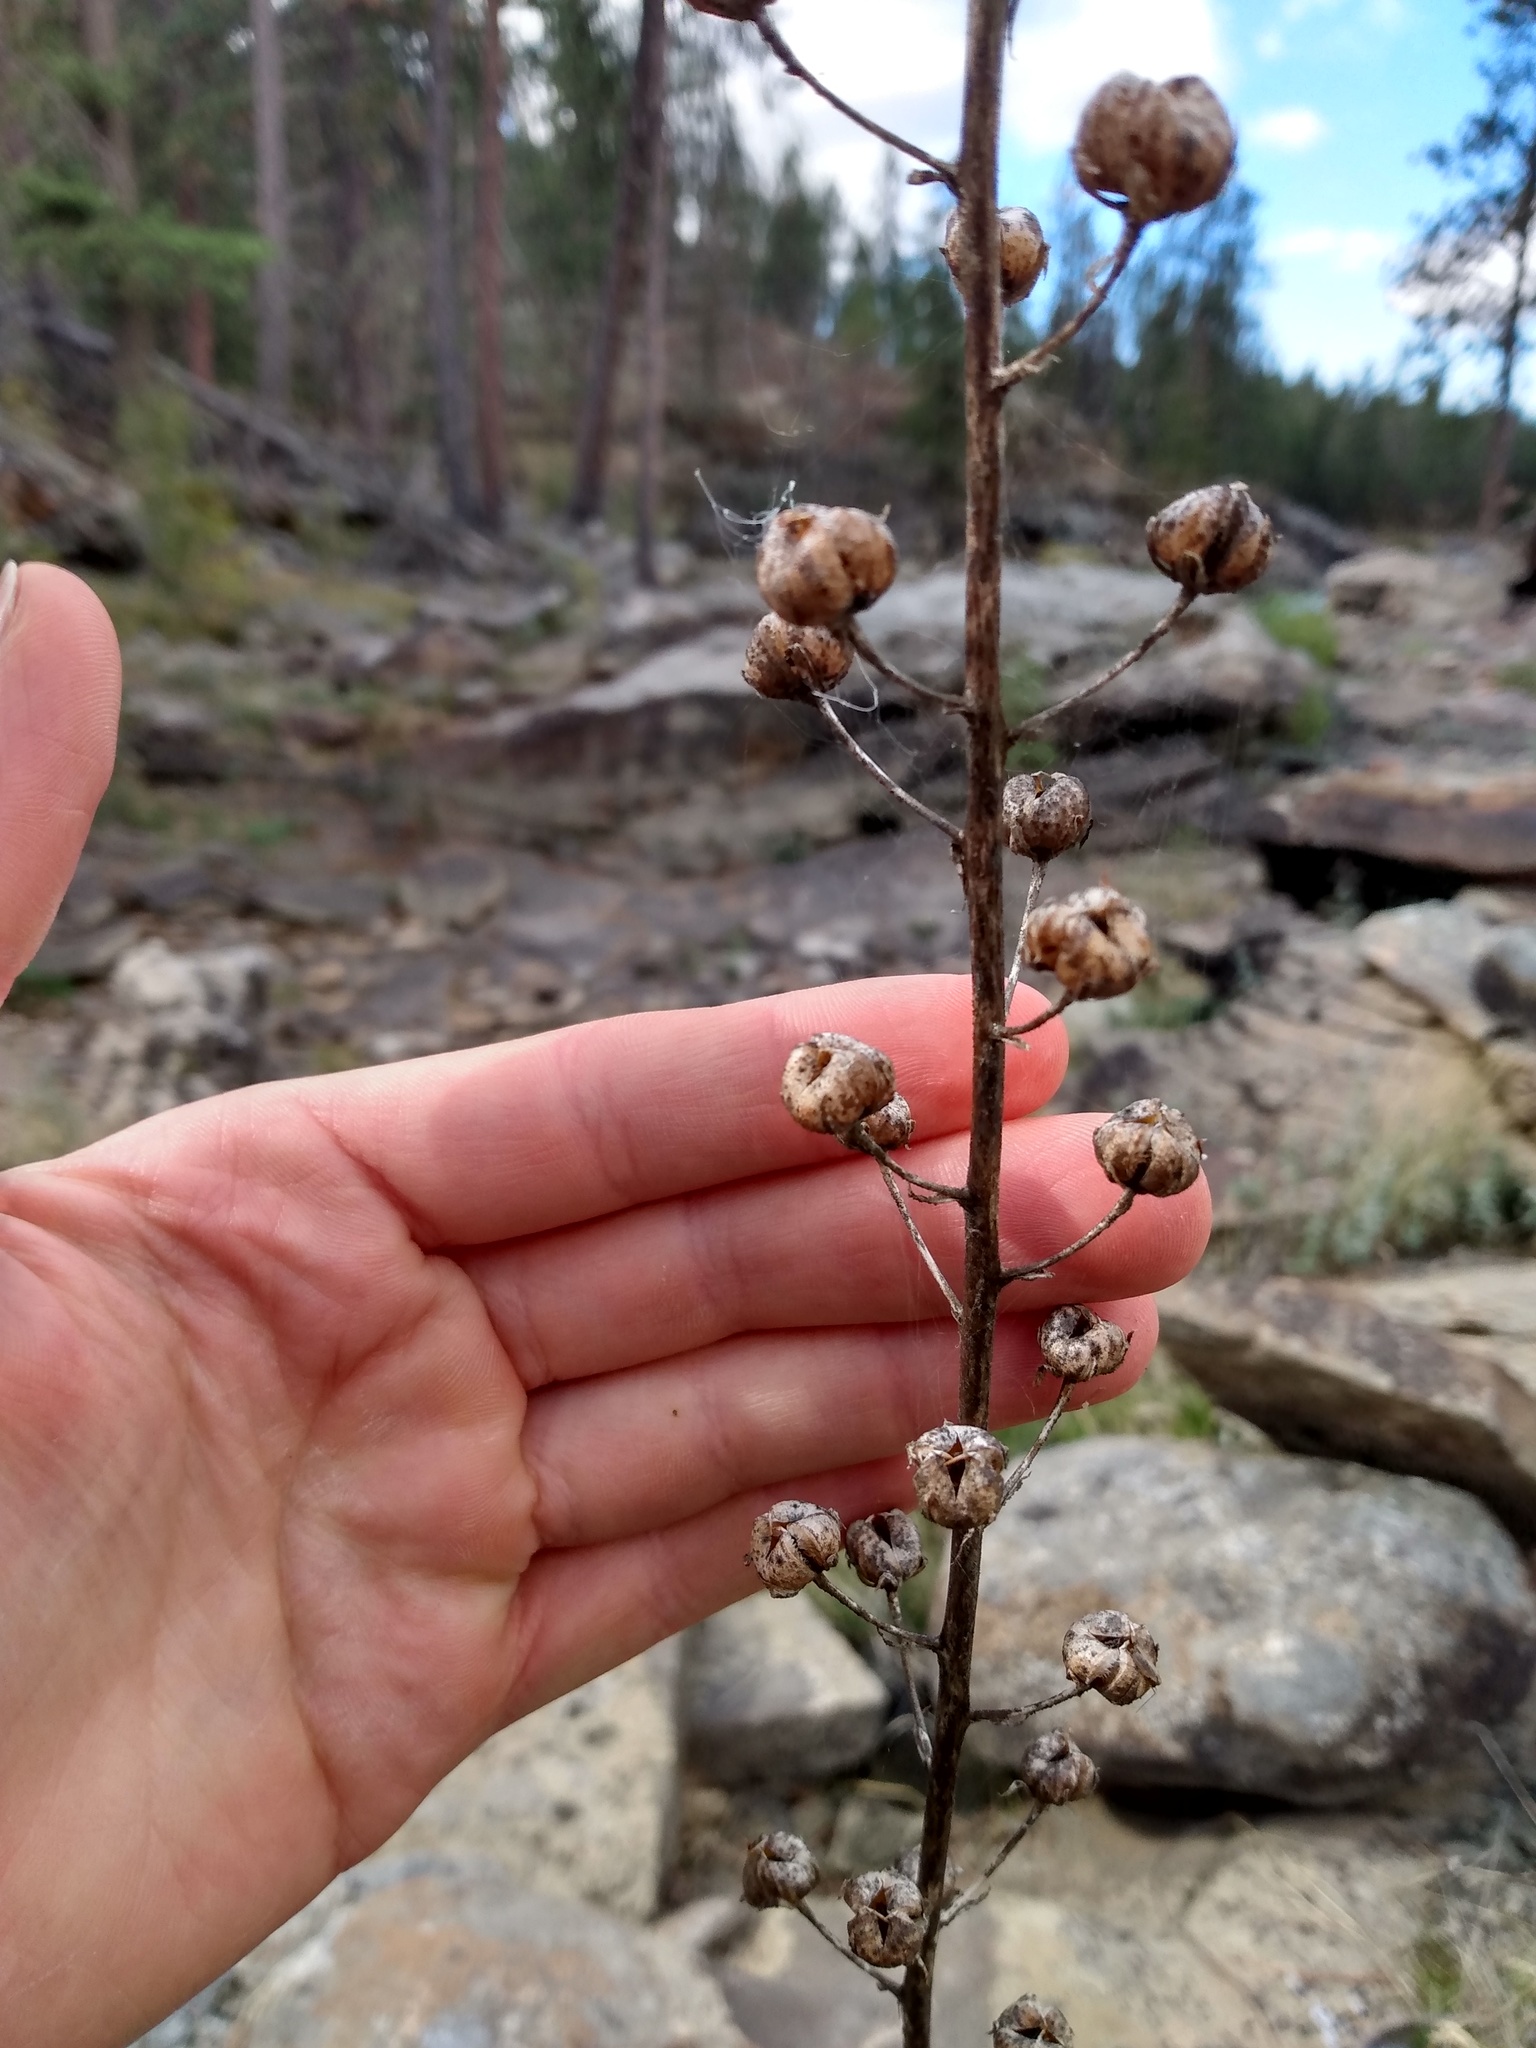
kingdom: Plantae
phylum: Tracheophyta
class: Magnoliopsida
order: Lamiales
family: Scrophulariaceae
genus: Verbascum
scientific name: Verbascum blattaria
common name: Moth mullein
